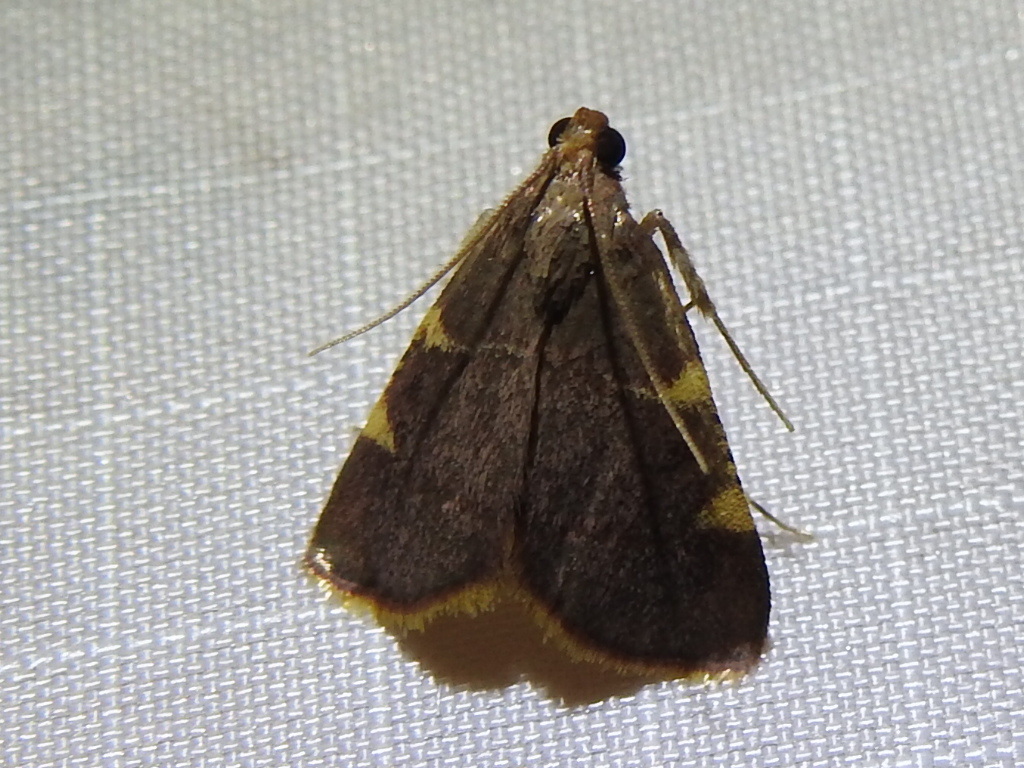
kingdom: Animalia
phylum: Arthropoda
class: Insecta
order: Lepidoptera
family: Pyralidae
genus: Hypsopygia
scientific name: Hypsopygia olinalis
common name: Yellow-fringed dolichomia moth
